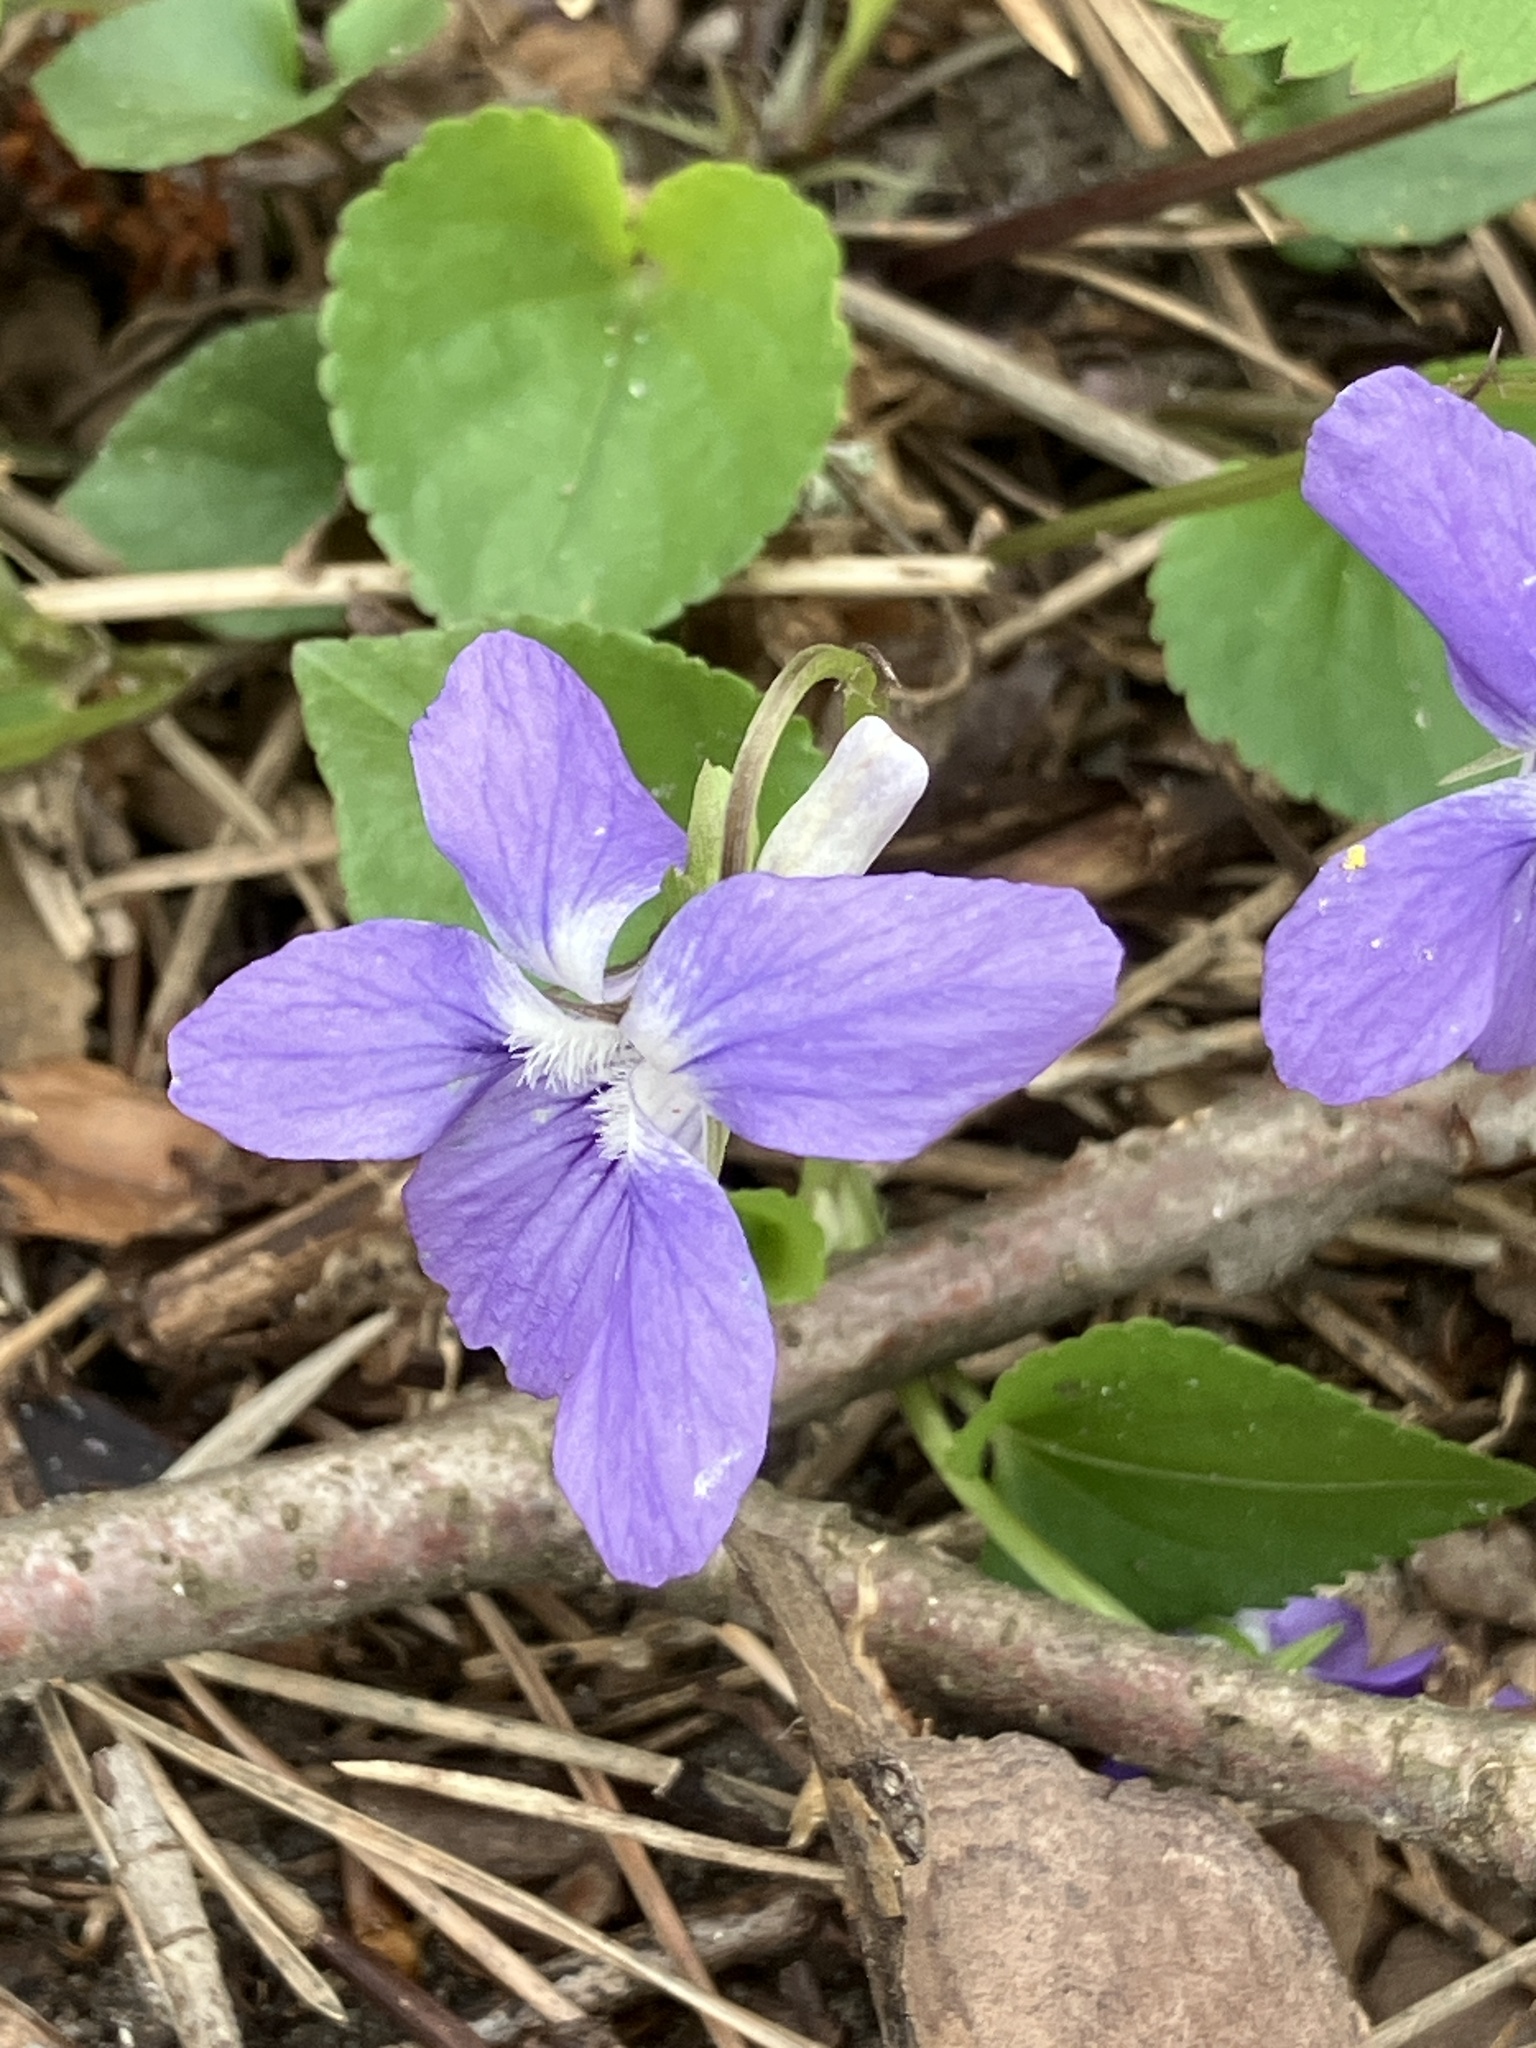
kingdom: Plantae
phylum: Tracheophyta
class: Magnoliopsida
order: Malpighiales
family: Violaceae
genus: Viola
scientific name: Viola riviniana
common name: Common dog-violet
